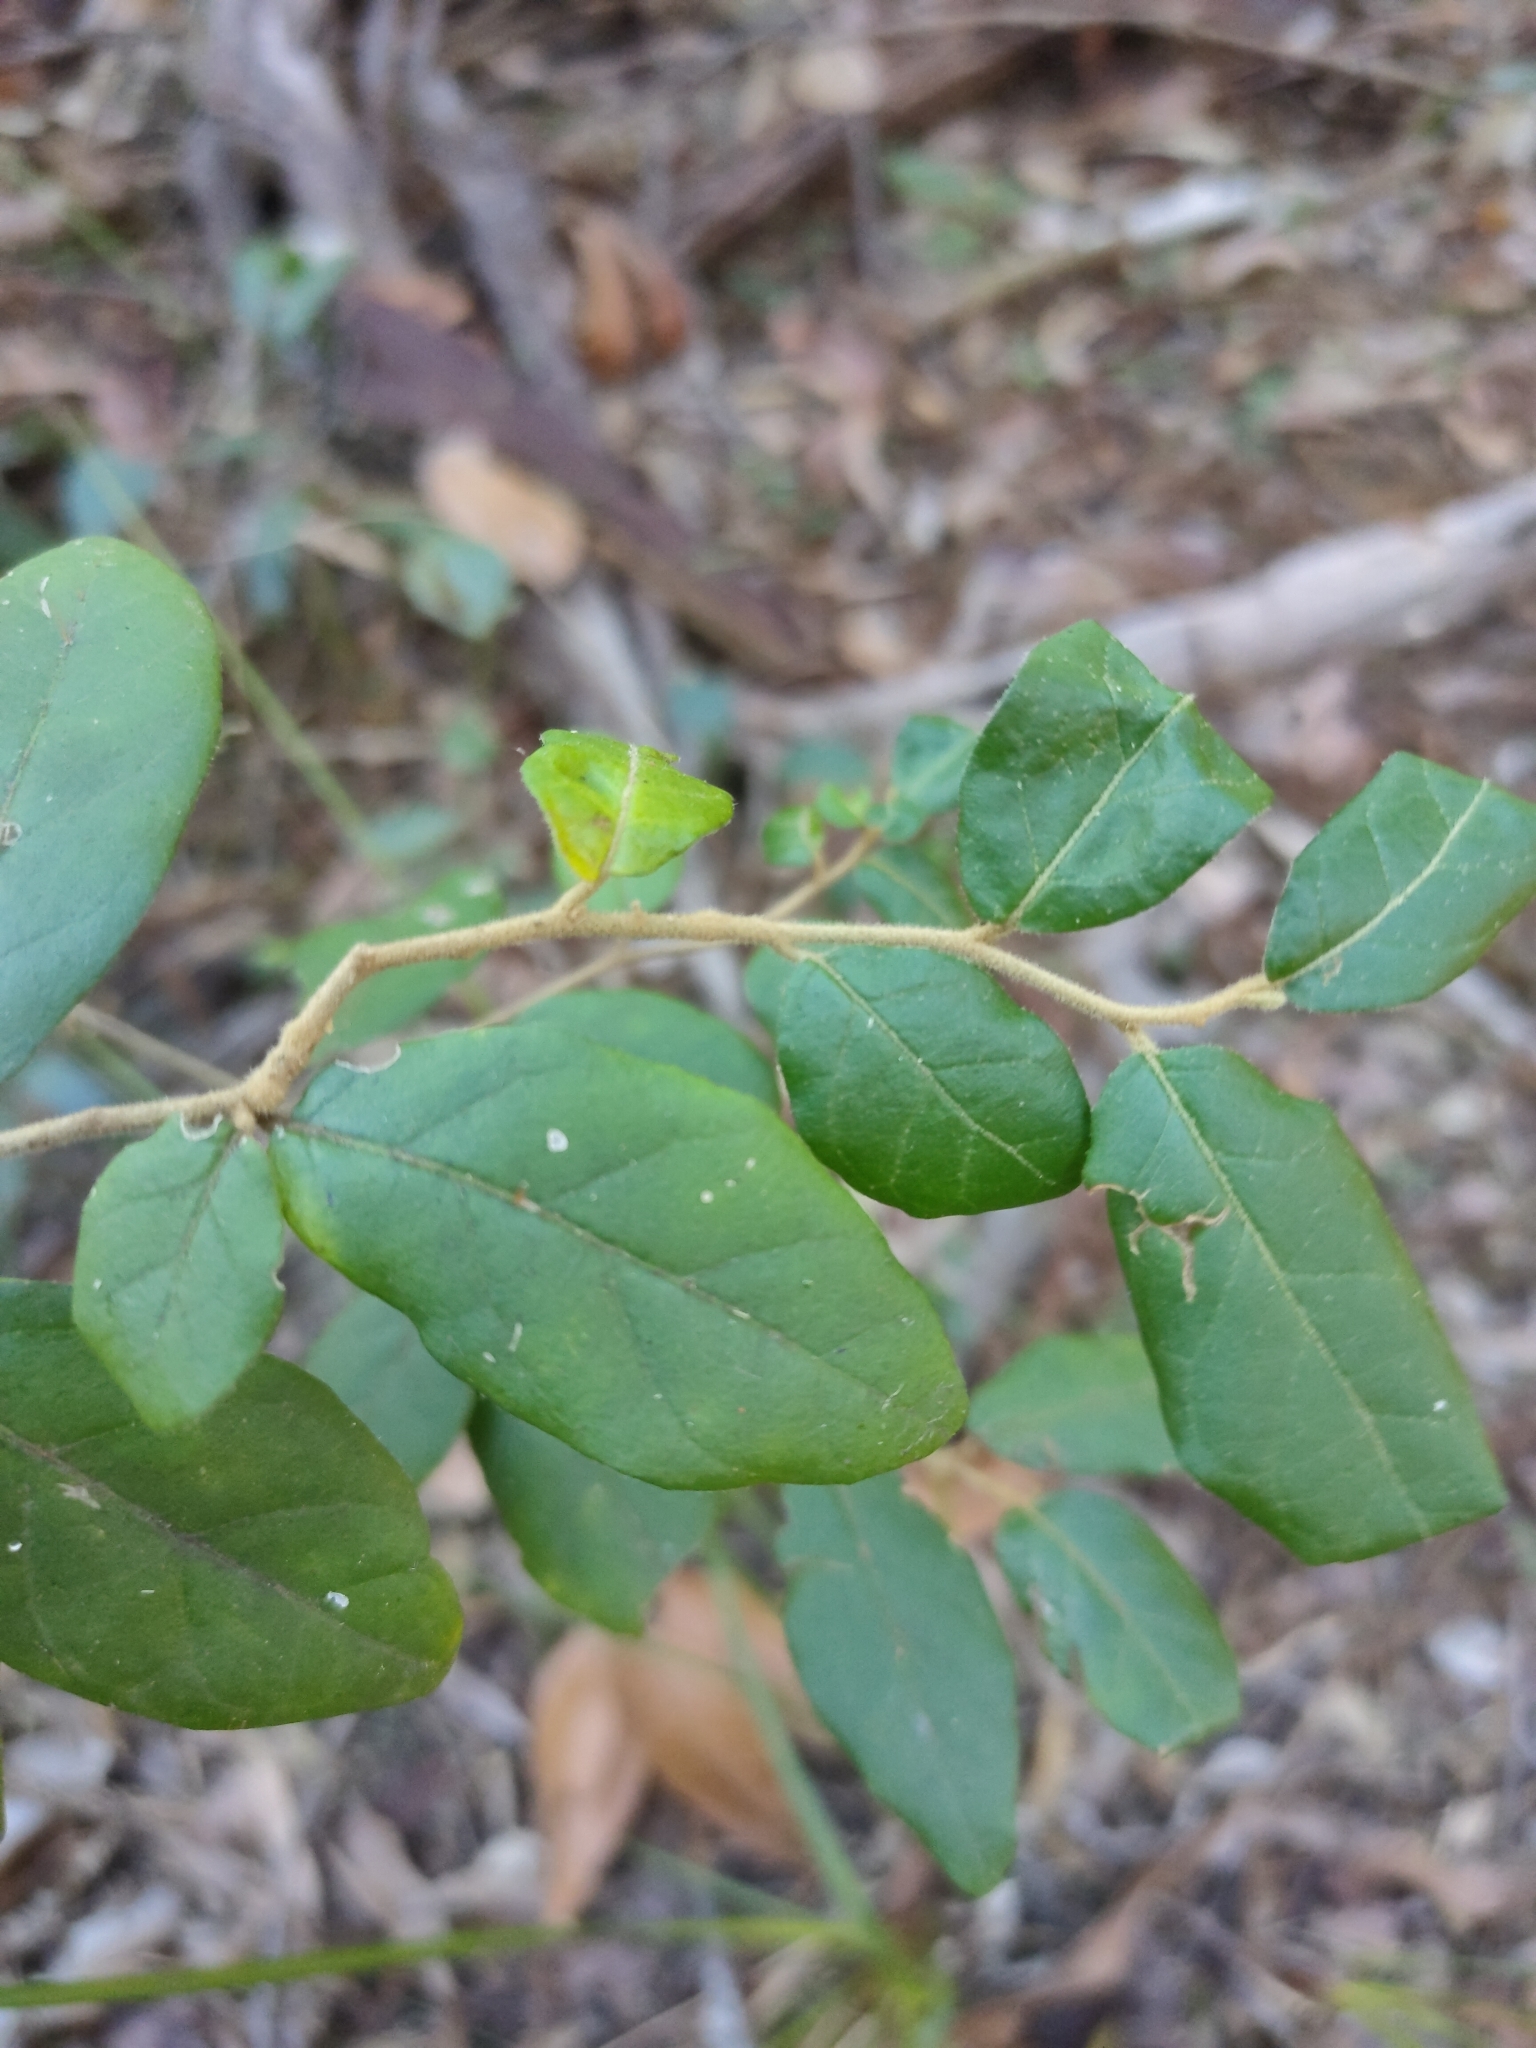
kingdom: Plantae
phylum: Tracheophyta
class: Magnoliopsida
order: Solanales
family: Solanaceae
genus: Solanum
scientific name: Solanum shirleyanum
